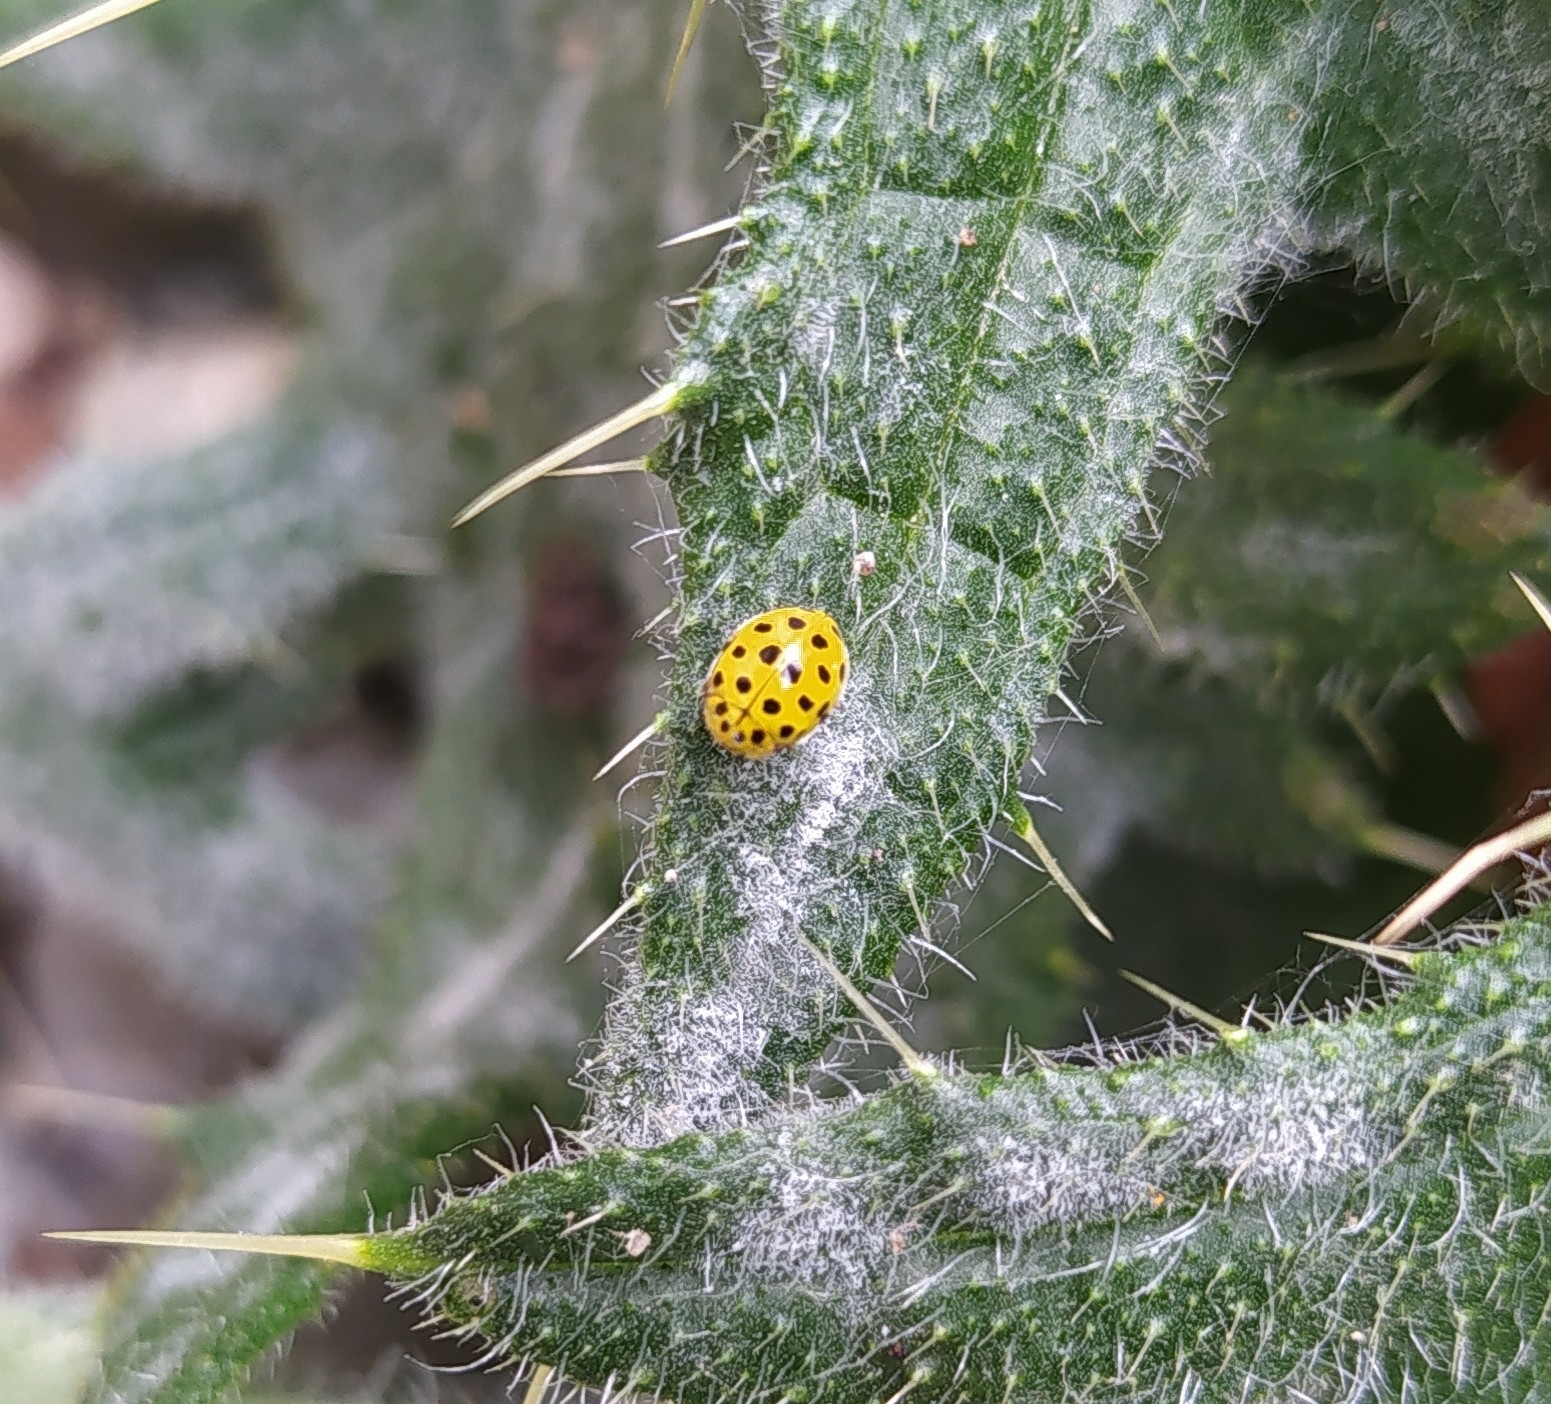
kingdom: Animalia
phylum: Arthropoda
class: Insecta
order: Coleoptera
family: Coccinellidae
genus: Psyllobora
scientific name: Psyllobora vigintiduopunctata
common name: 22-spot ladybird
